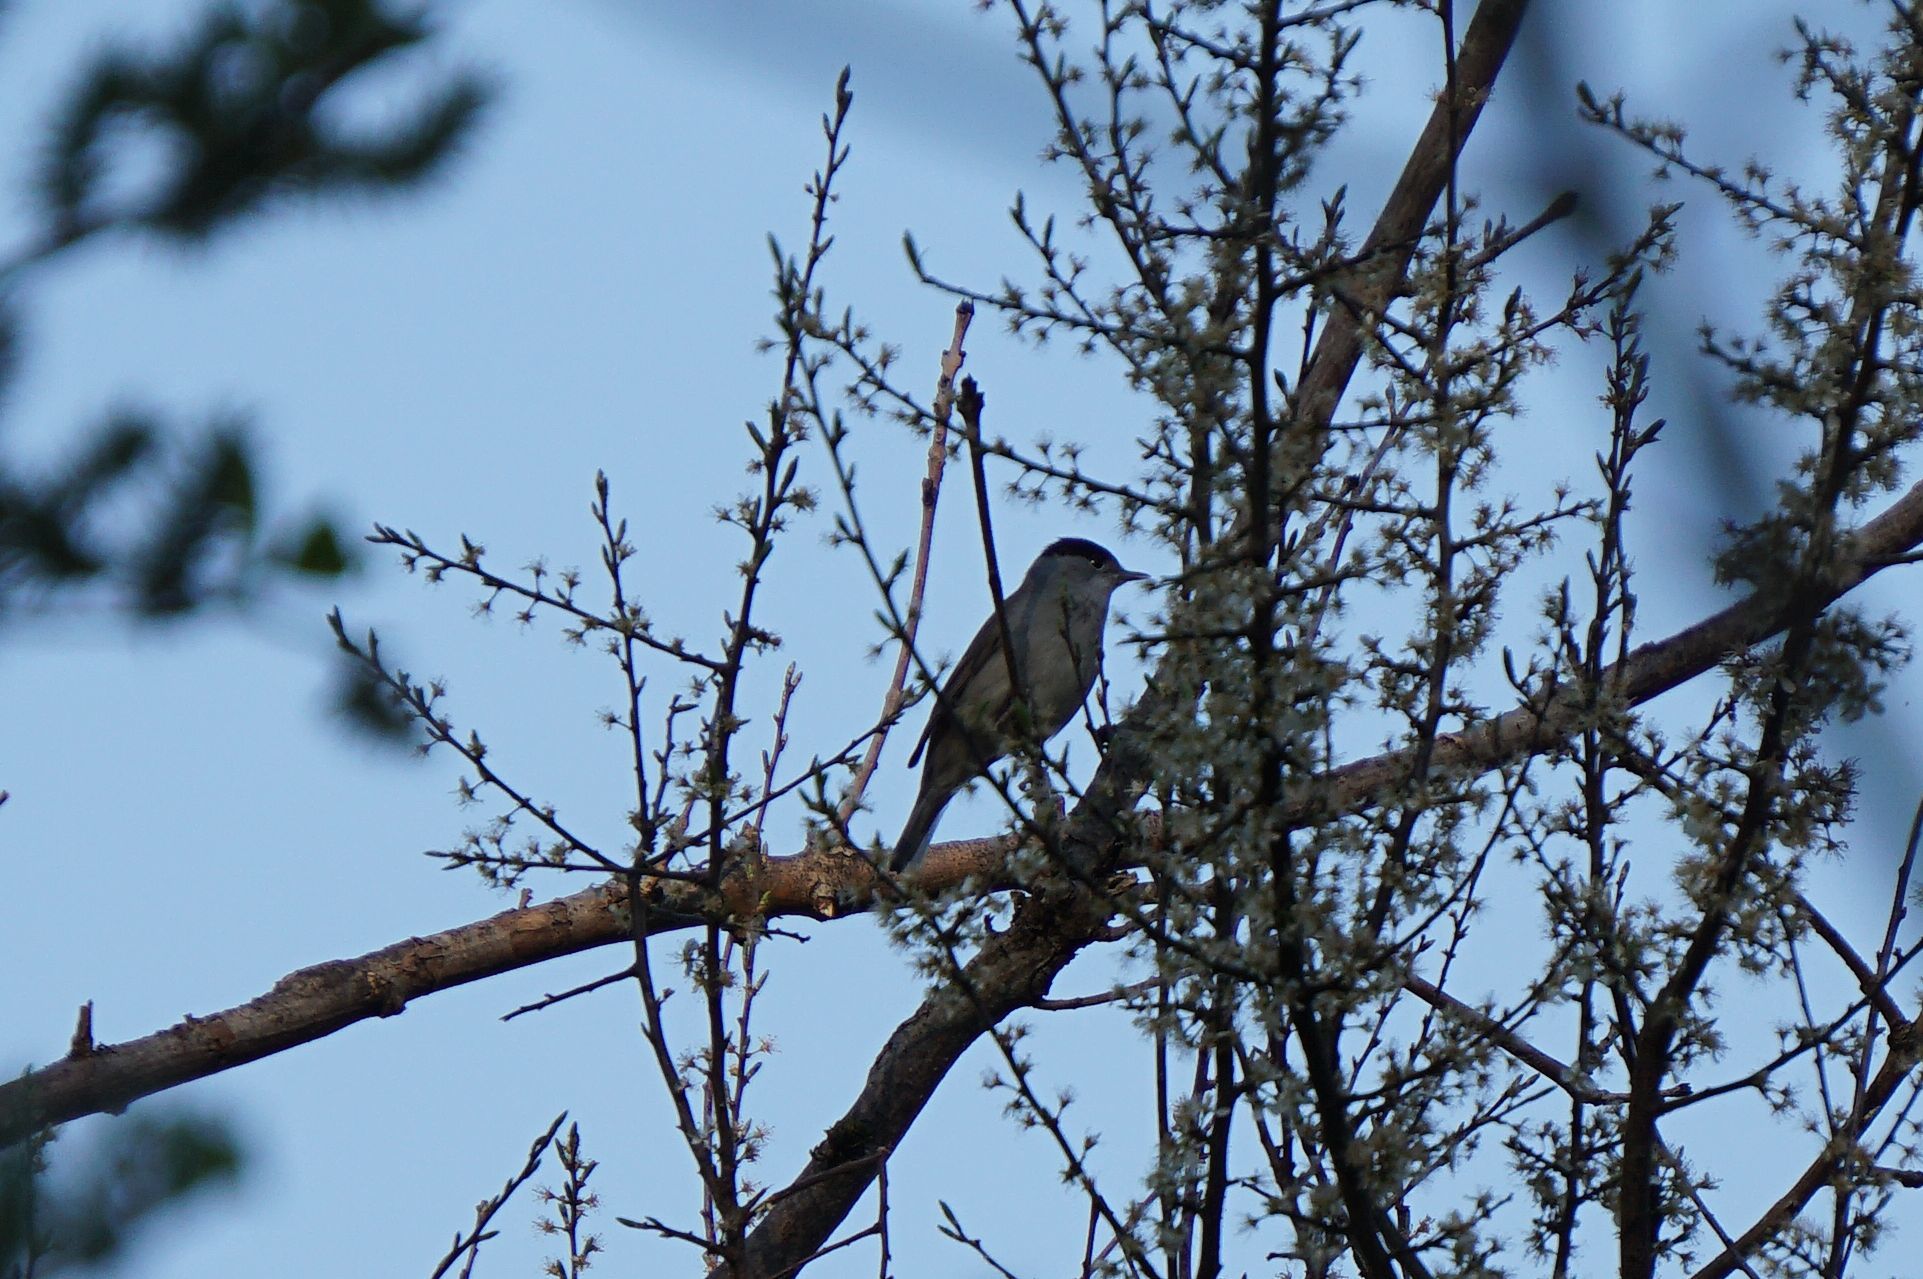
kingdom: Animalia
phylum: Chordata
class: Aves
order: Passeriformes
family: Sylviidae
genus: Sylvia
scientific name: Sylvia atricapilla
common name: Eurasian blackcap
